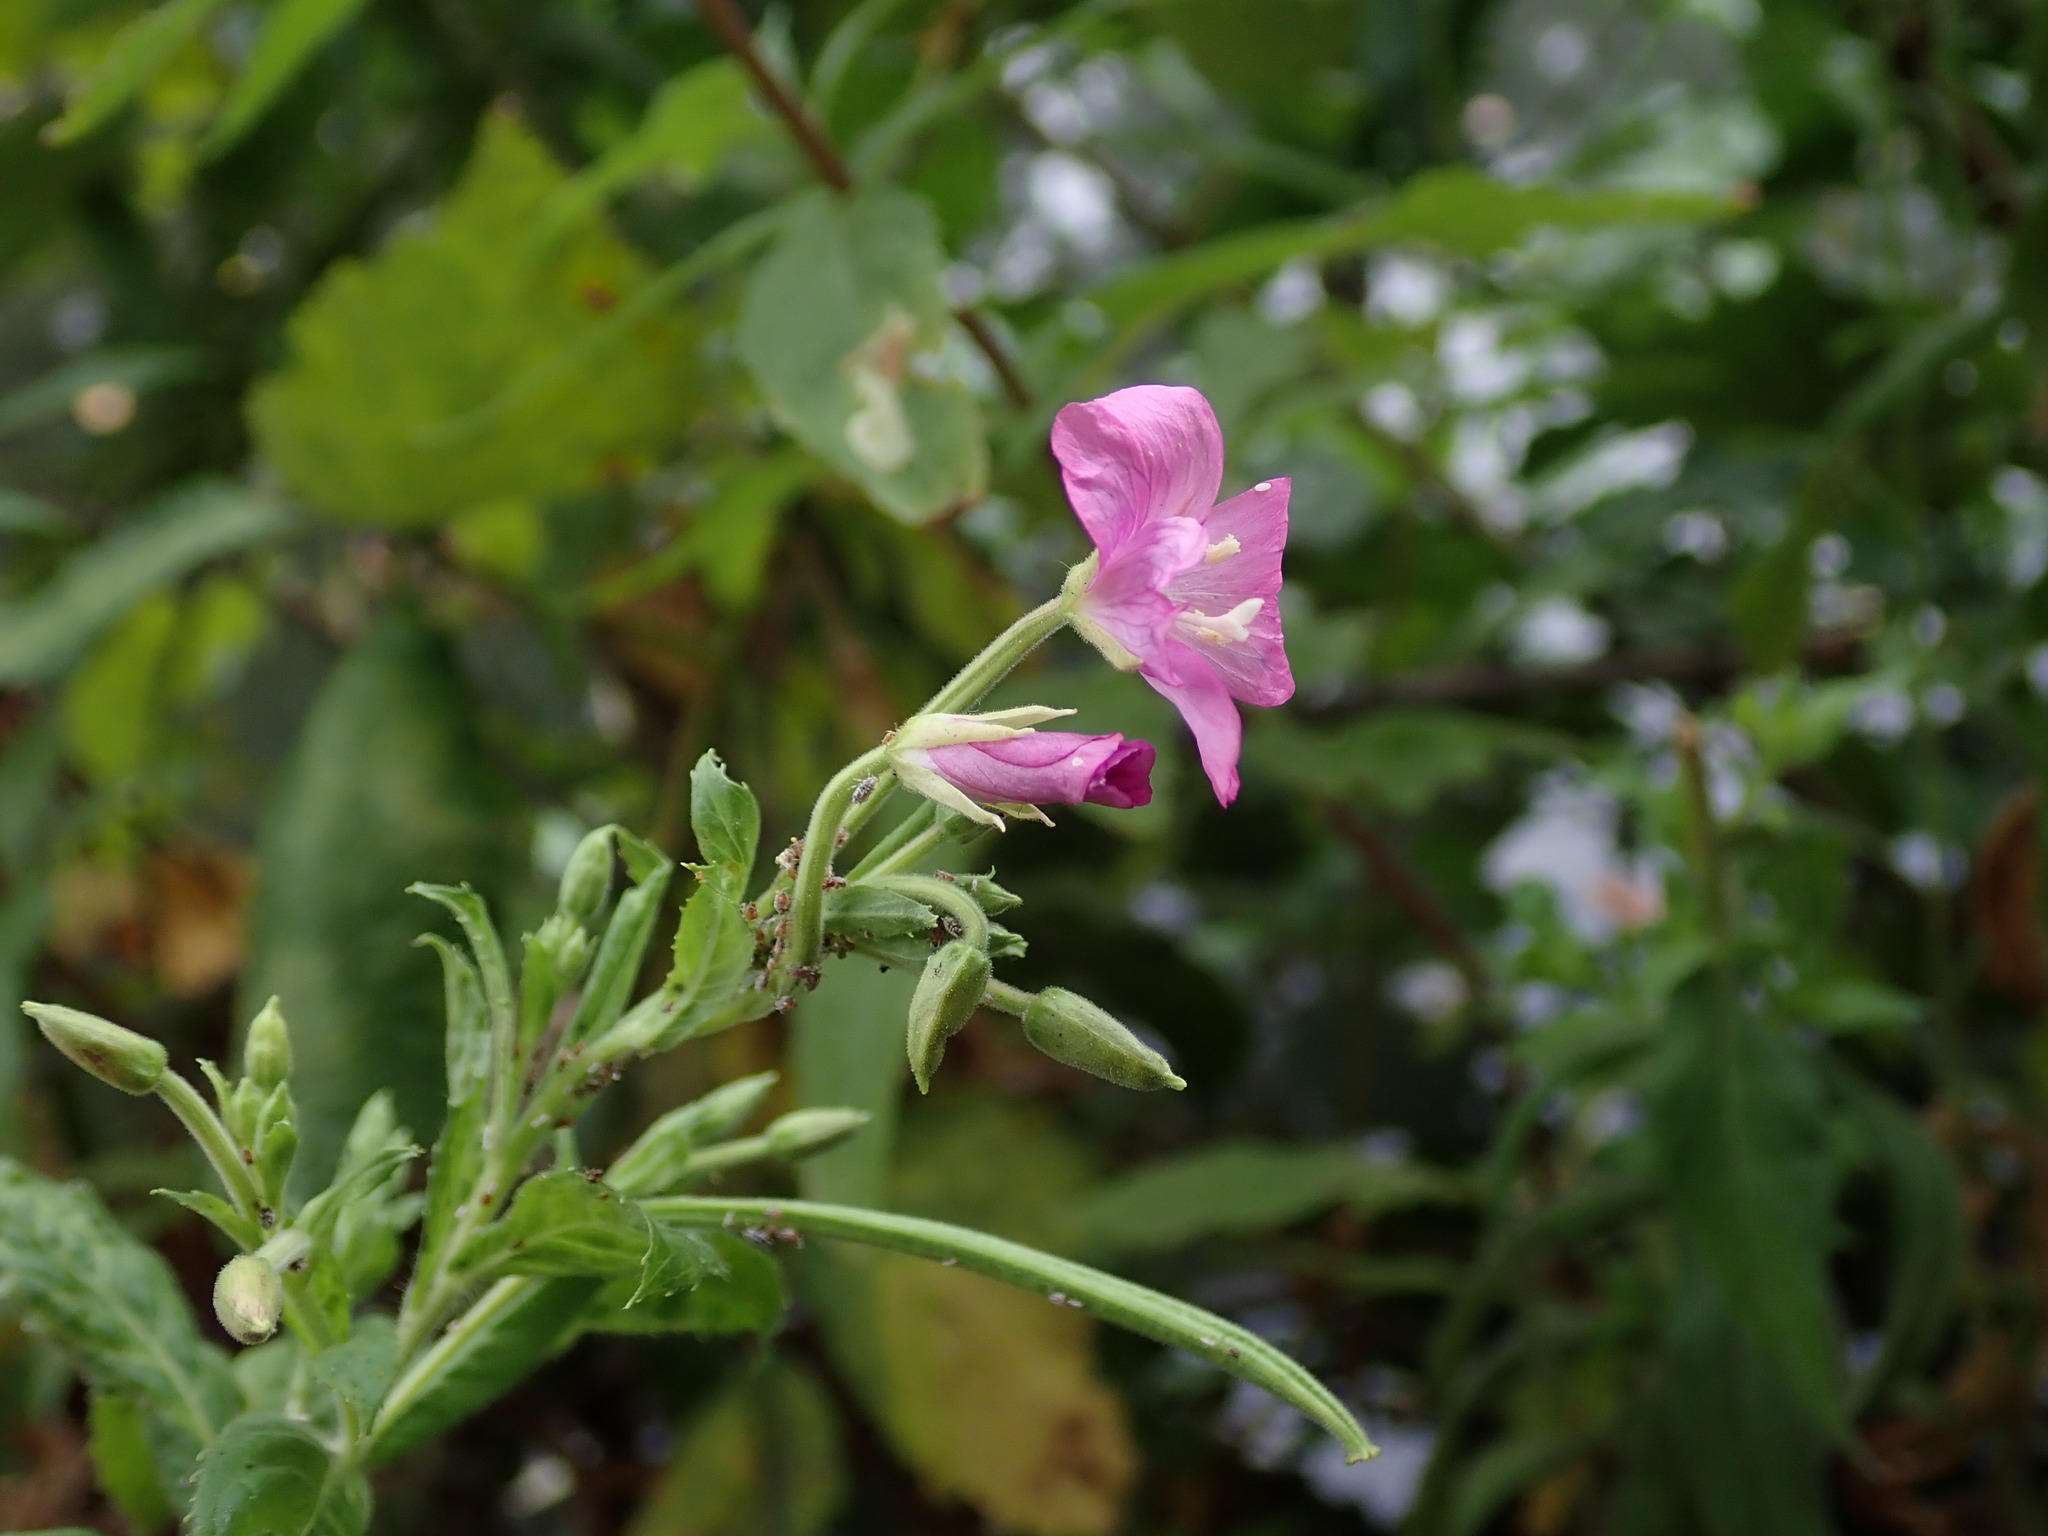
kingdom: Plantae
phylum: Tracheophyta
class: Magnoliopsida
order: Myrtales
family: Onagraceae
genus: Epilobium
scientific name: Epilobium hirsutum
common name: Great willowherb
